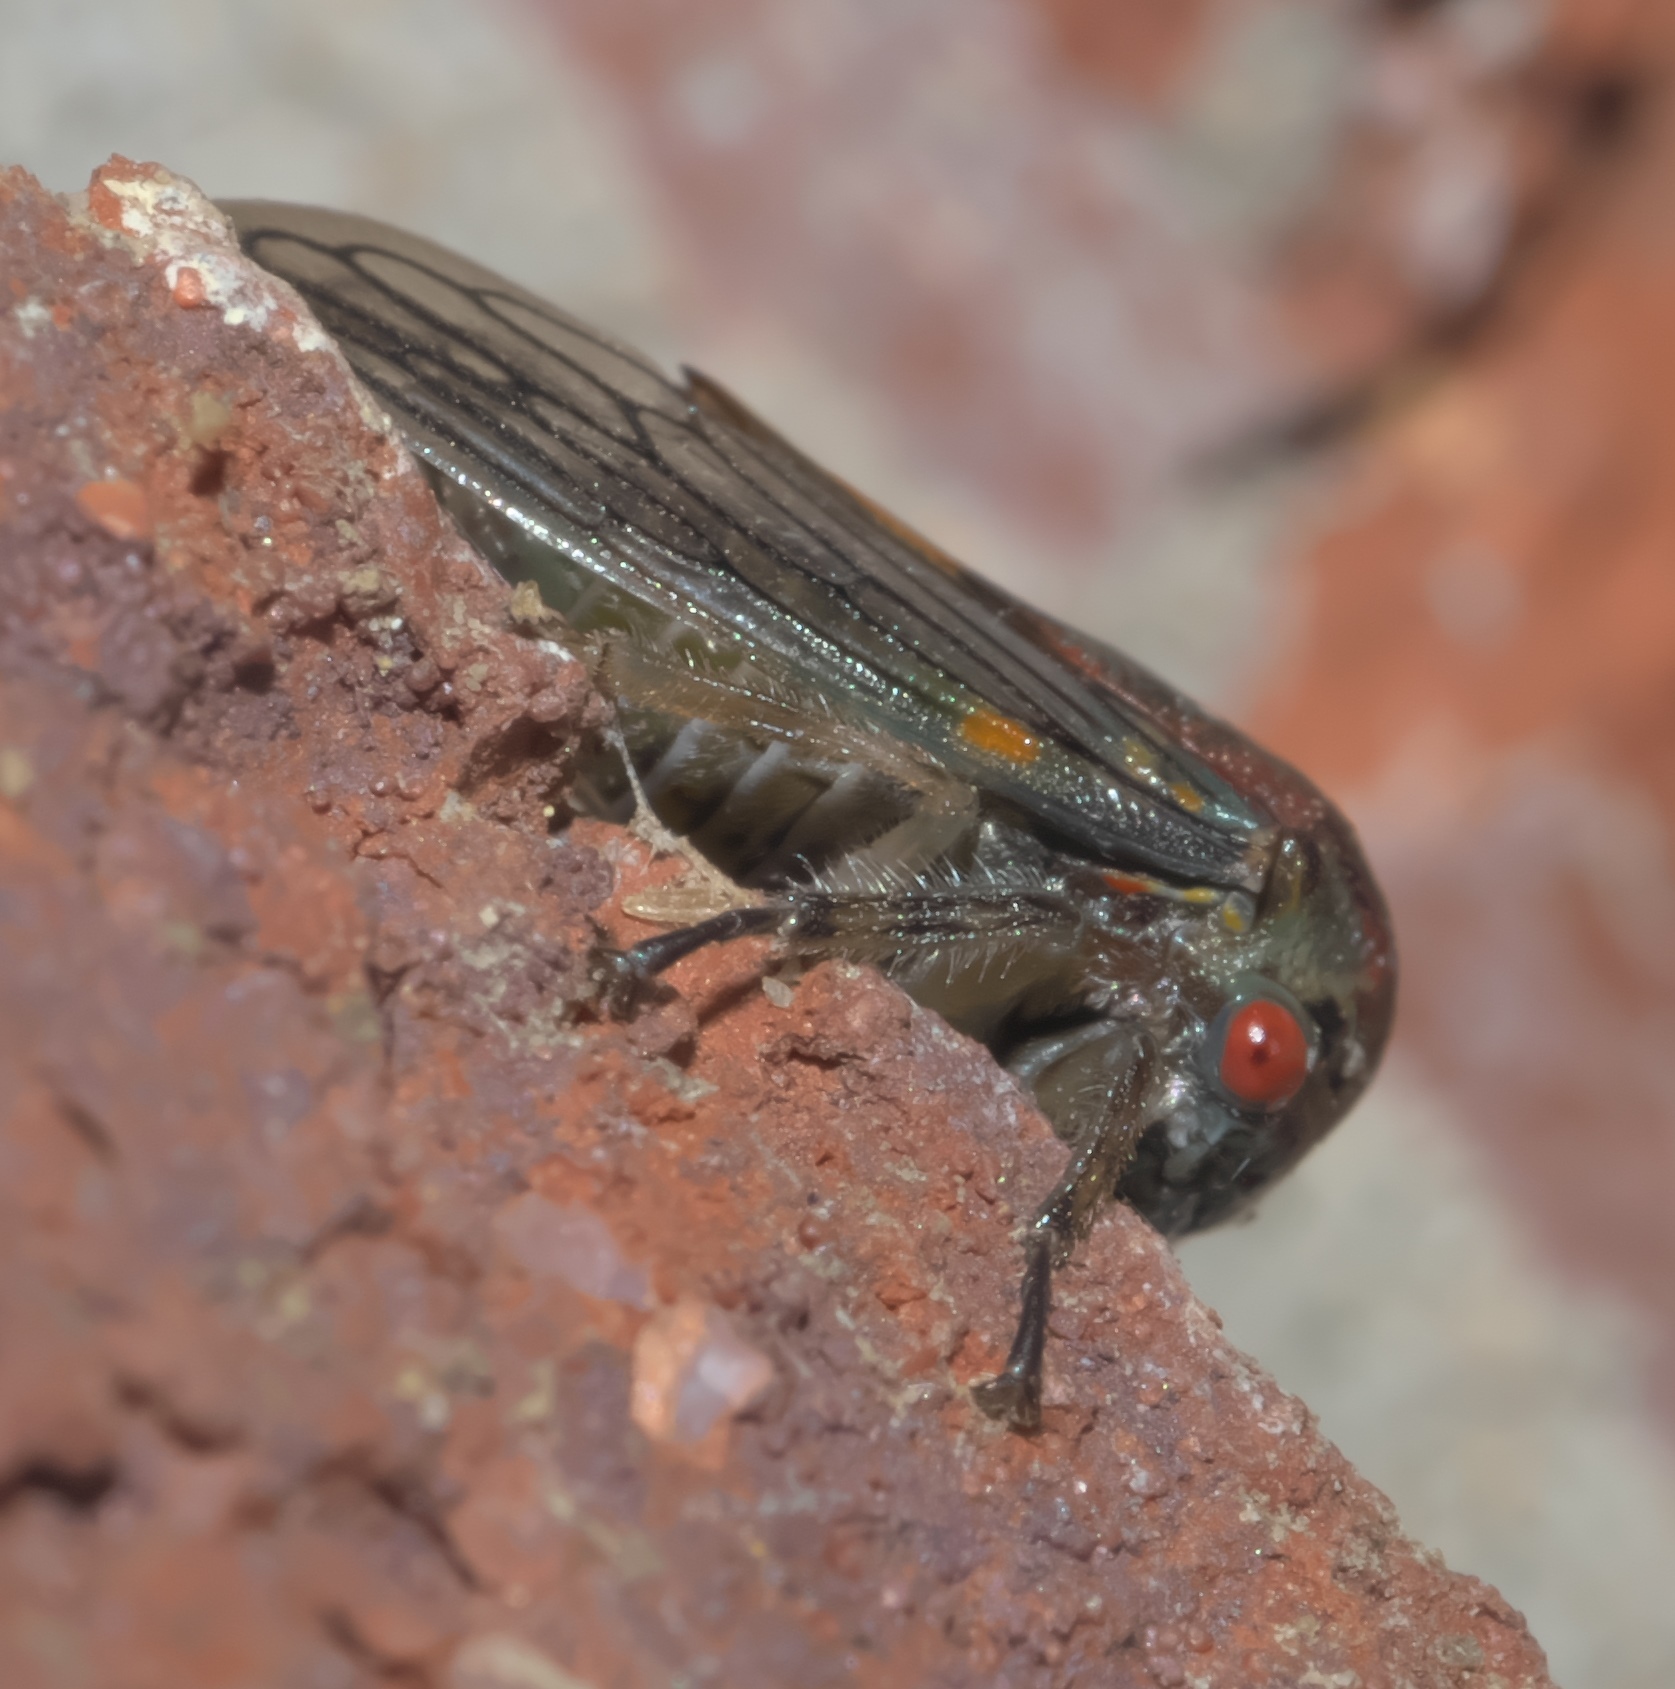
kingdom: Animalia
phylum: Arthropoda
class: Insecta
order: Hemiptera
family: Membracidae
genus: Platycotis
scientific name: Platycotis vittatus
